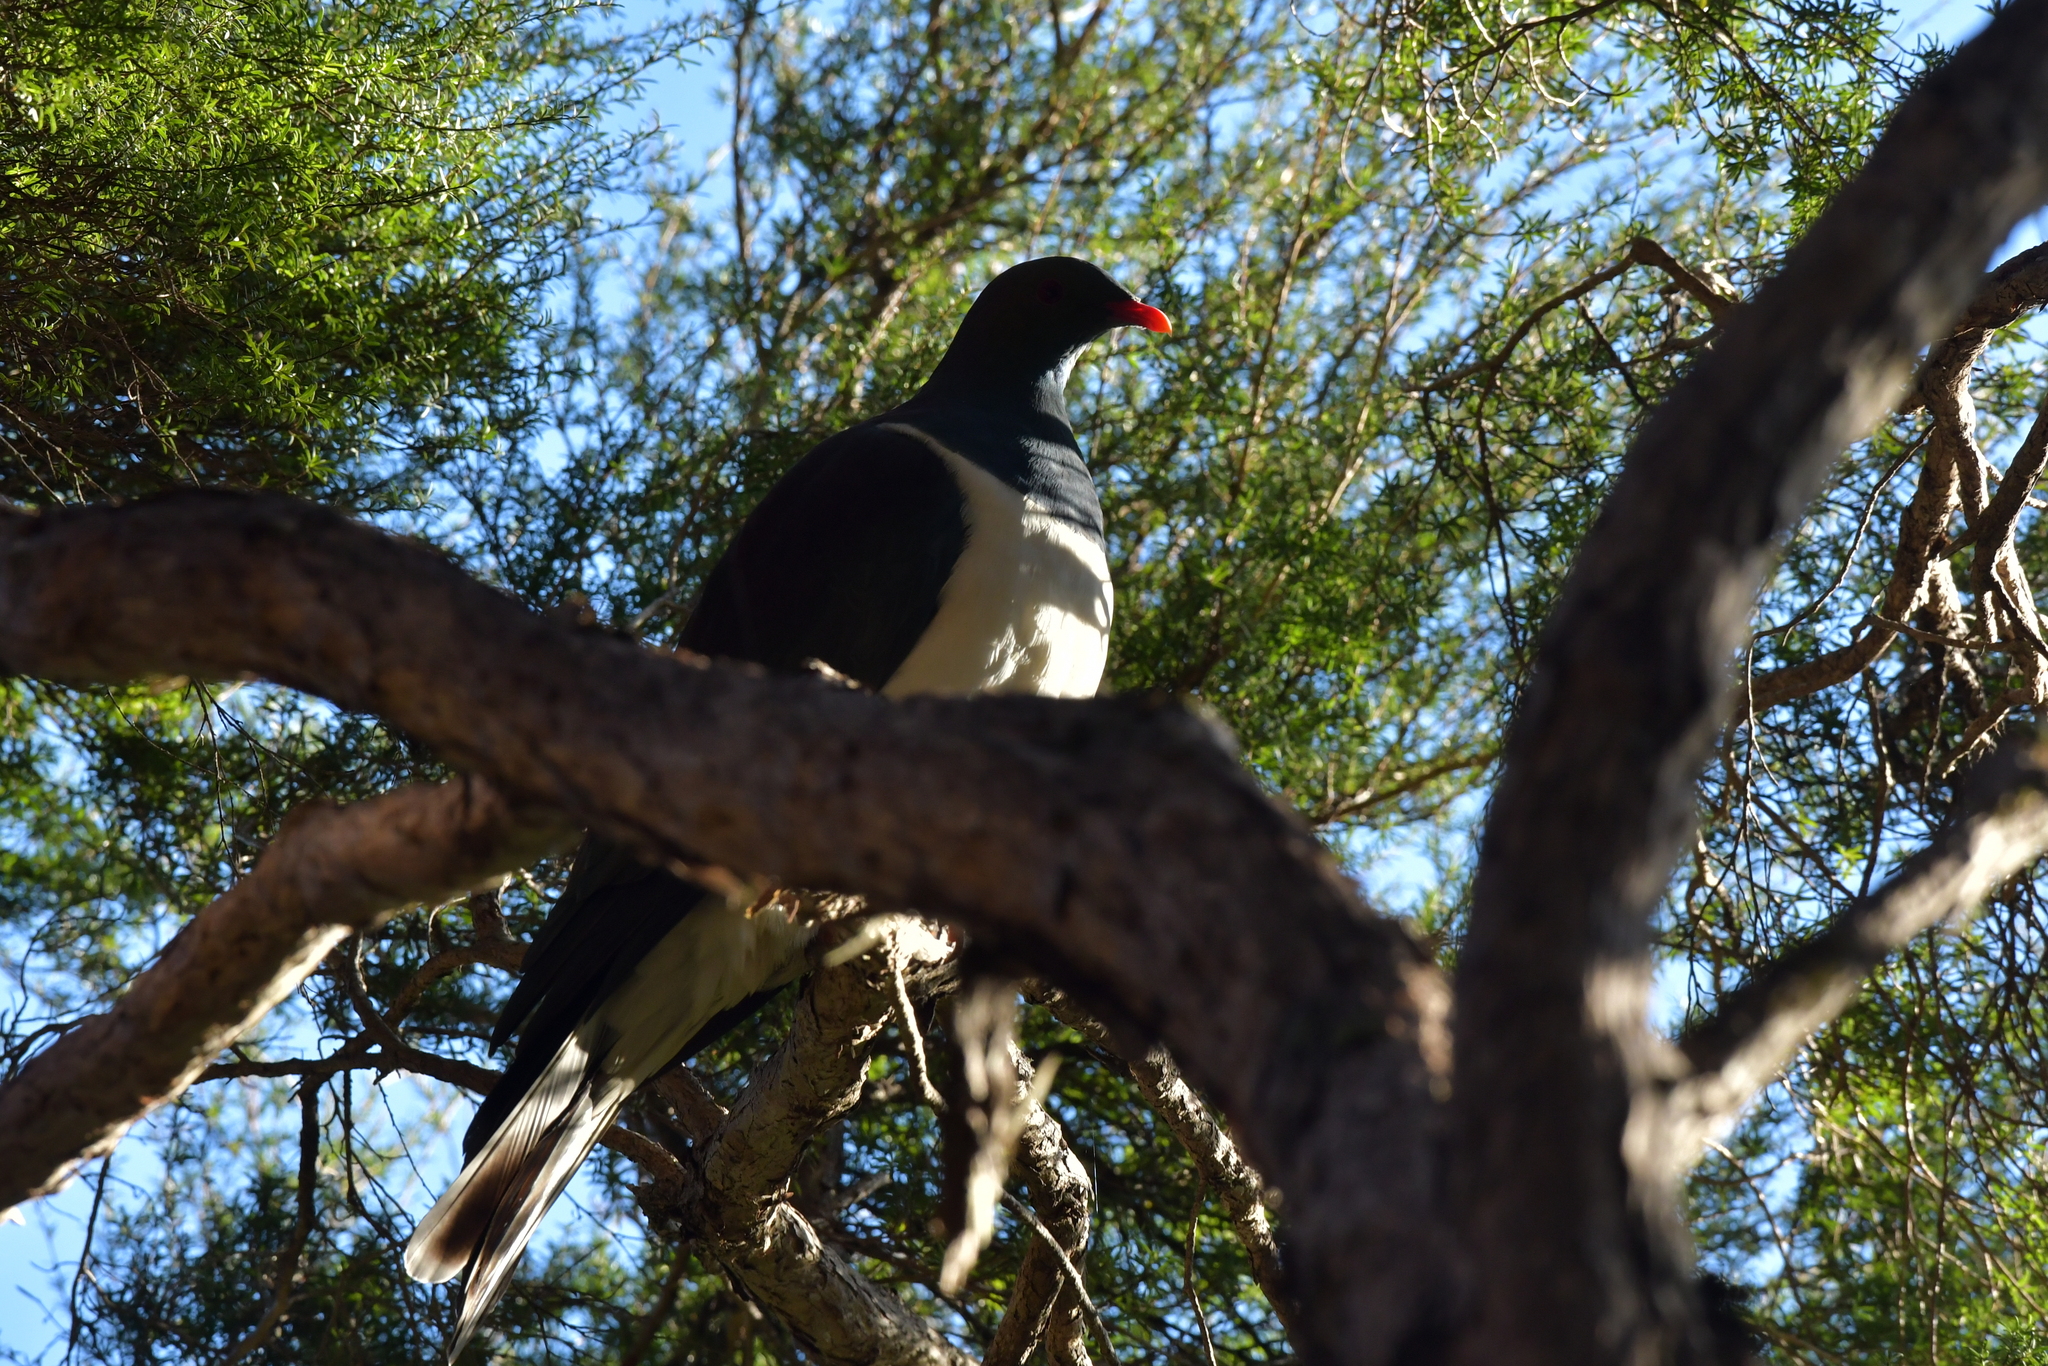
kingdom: Animalia
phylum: Chordata
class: Aves
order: Columbiformes
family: Columbidae
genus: Hemiphaga
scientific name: Hemiphaga novaeseelandiae
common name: New zealand pigeon
